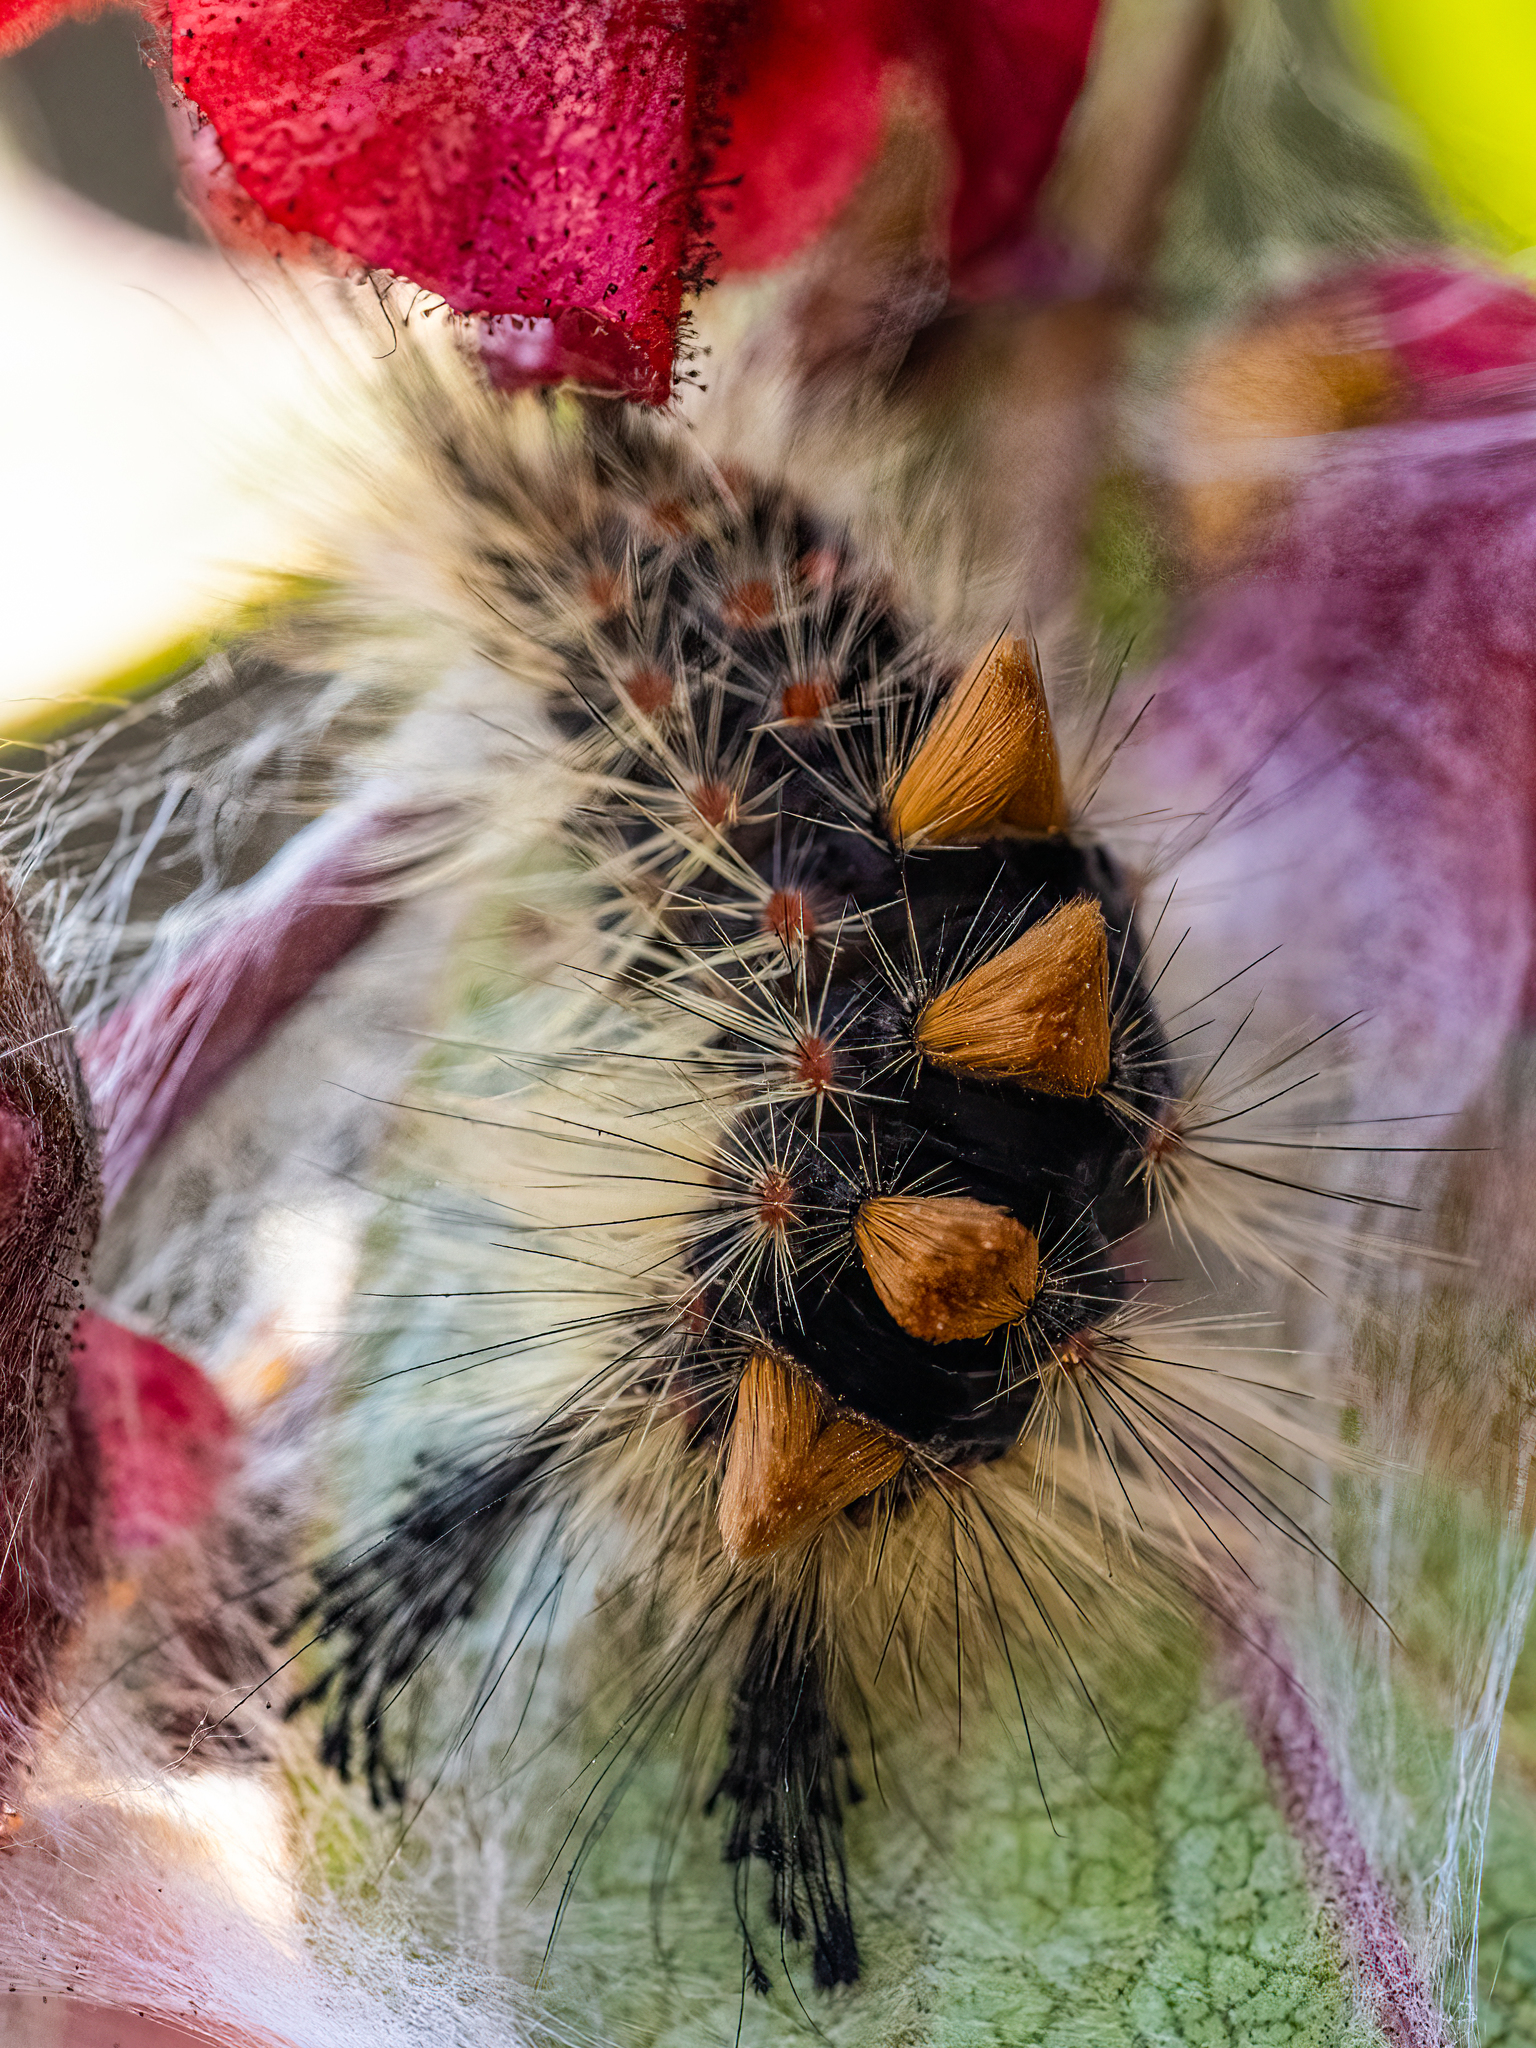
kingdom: Animalia
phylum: Arthropoda
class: Insecta
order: Lepidoptera
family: Erebidae
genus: Orgyia
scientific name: Orgyia antiqua
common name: Vapourer
